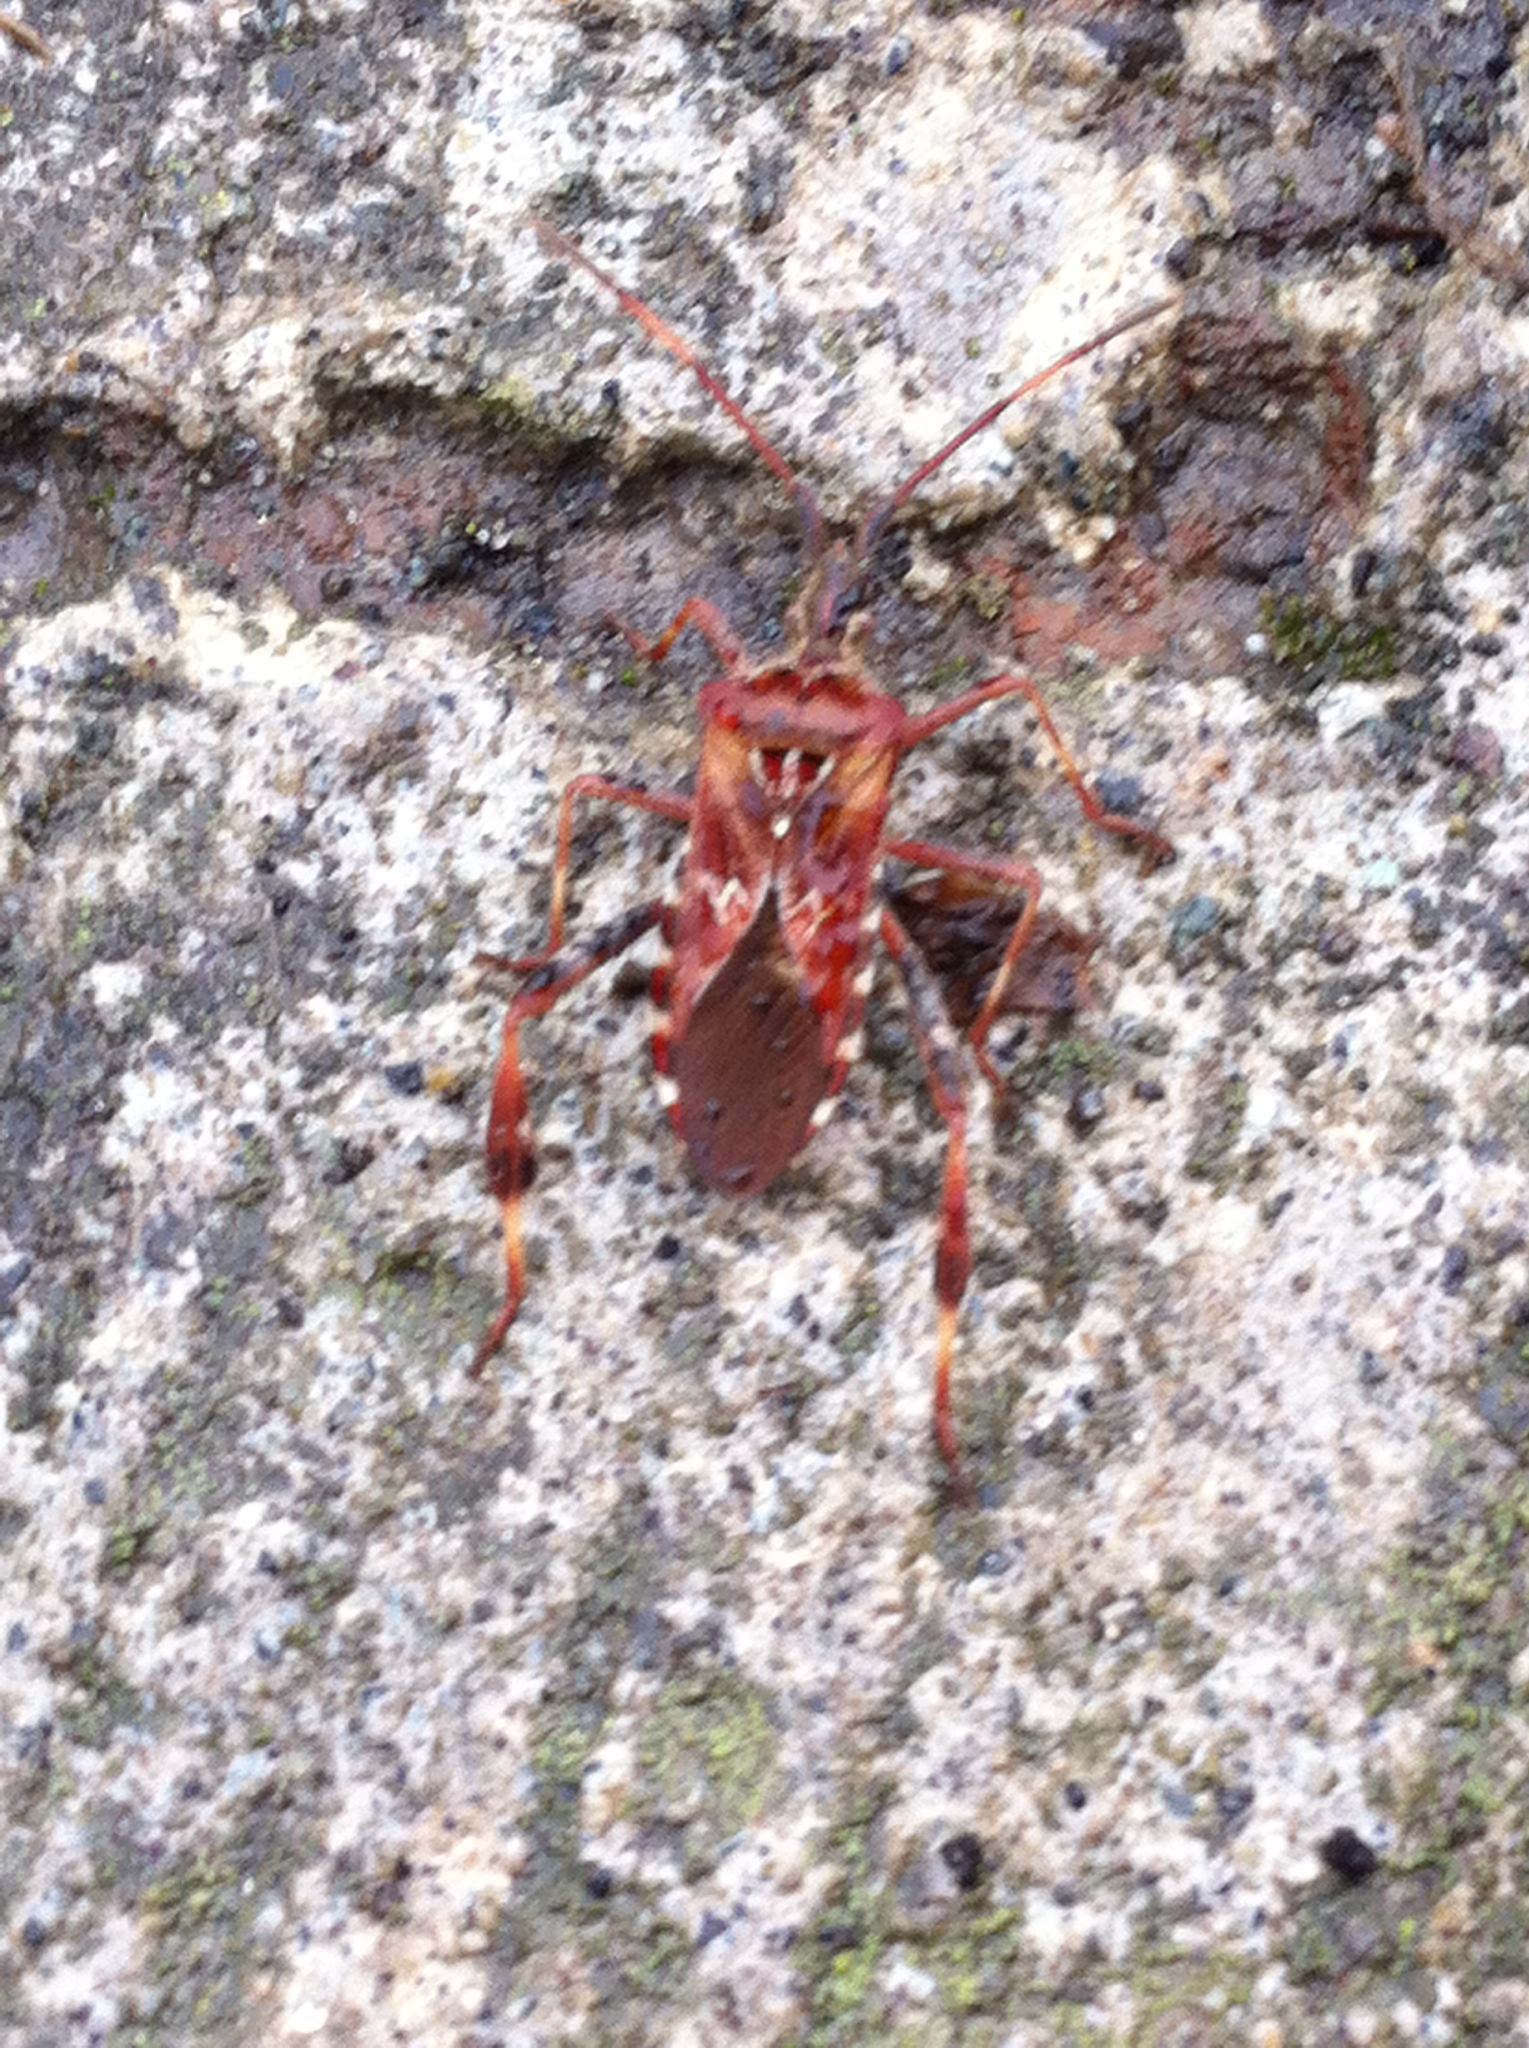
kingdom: Animalia
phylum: Arthropoda
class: Insecta
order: Hemiptera
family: Coreidae
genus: Leptoglossus
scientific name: Leptoglossus occidentalis
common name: Western conifer-seed bug
